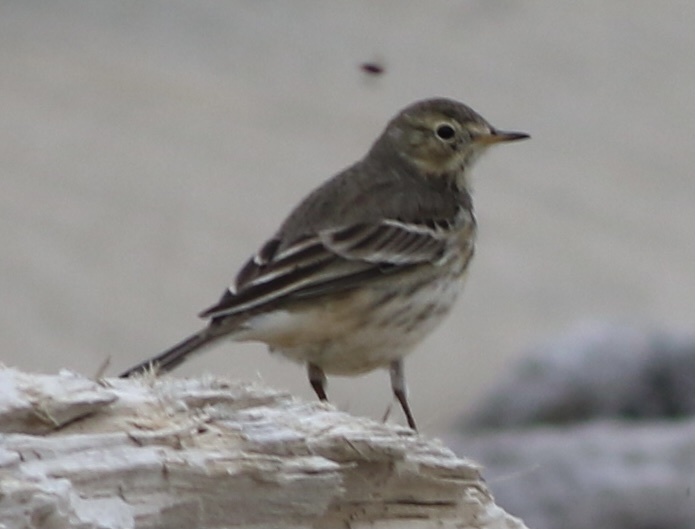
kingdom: Animalia
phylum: Chordata
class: Aves
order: Passeriformes
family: Motacillidae
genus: Anthus
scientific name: Anthus rubescens
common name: Buff-bellied pipit
